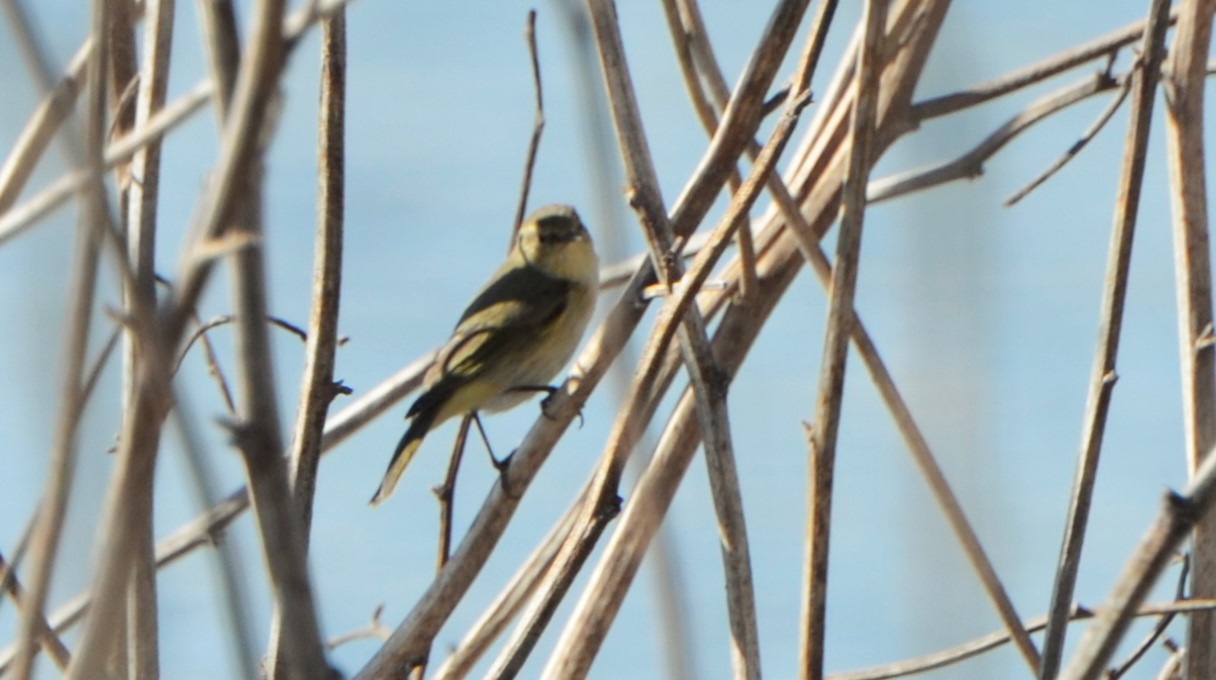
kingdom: Animalia
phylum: Chordata
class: Aves
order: Passeriformes
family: Phylloscopidae
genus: Phylloscopus
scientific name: Phylloscopus collybita
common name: Common chiffchaff
